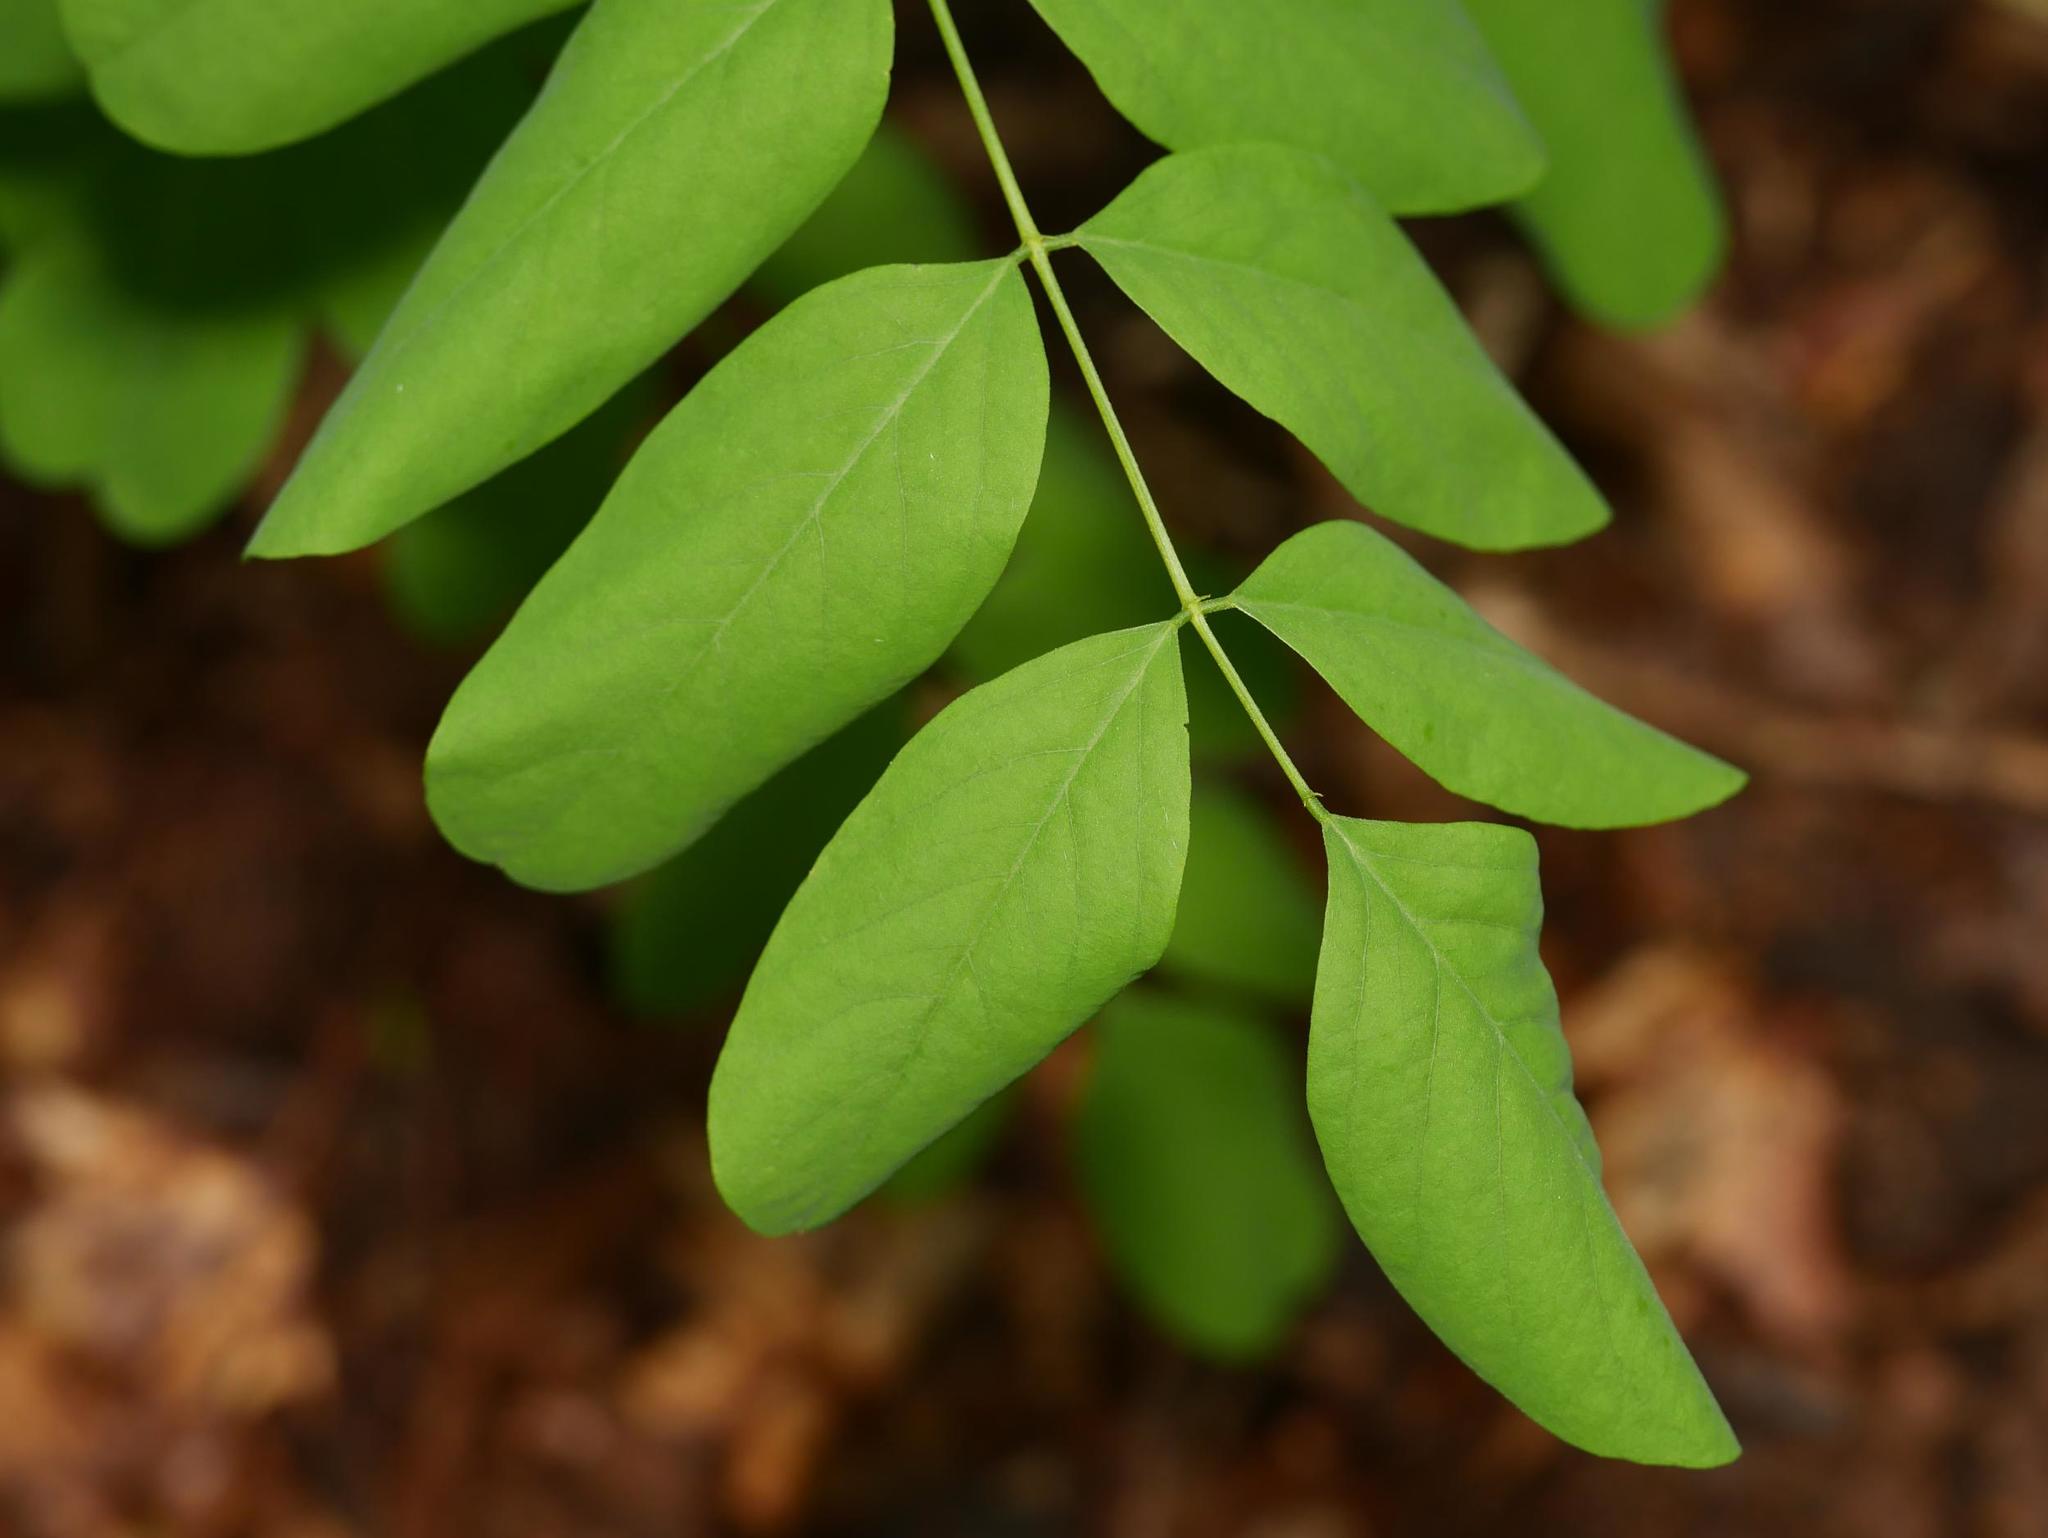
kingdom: Plantae
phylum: Tracheophyta
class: Magnoliopsida
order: Fabales
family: Fabaceae
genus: Robinia
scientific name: Robinia pseudoacacia
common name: Black locust
